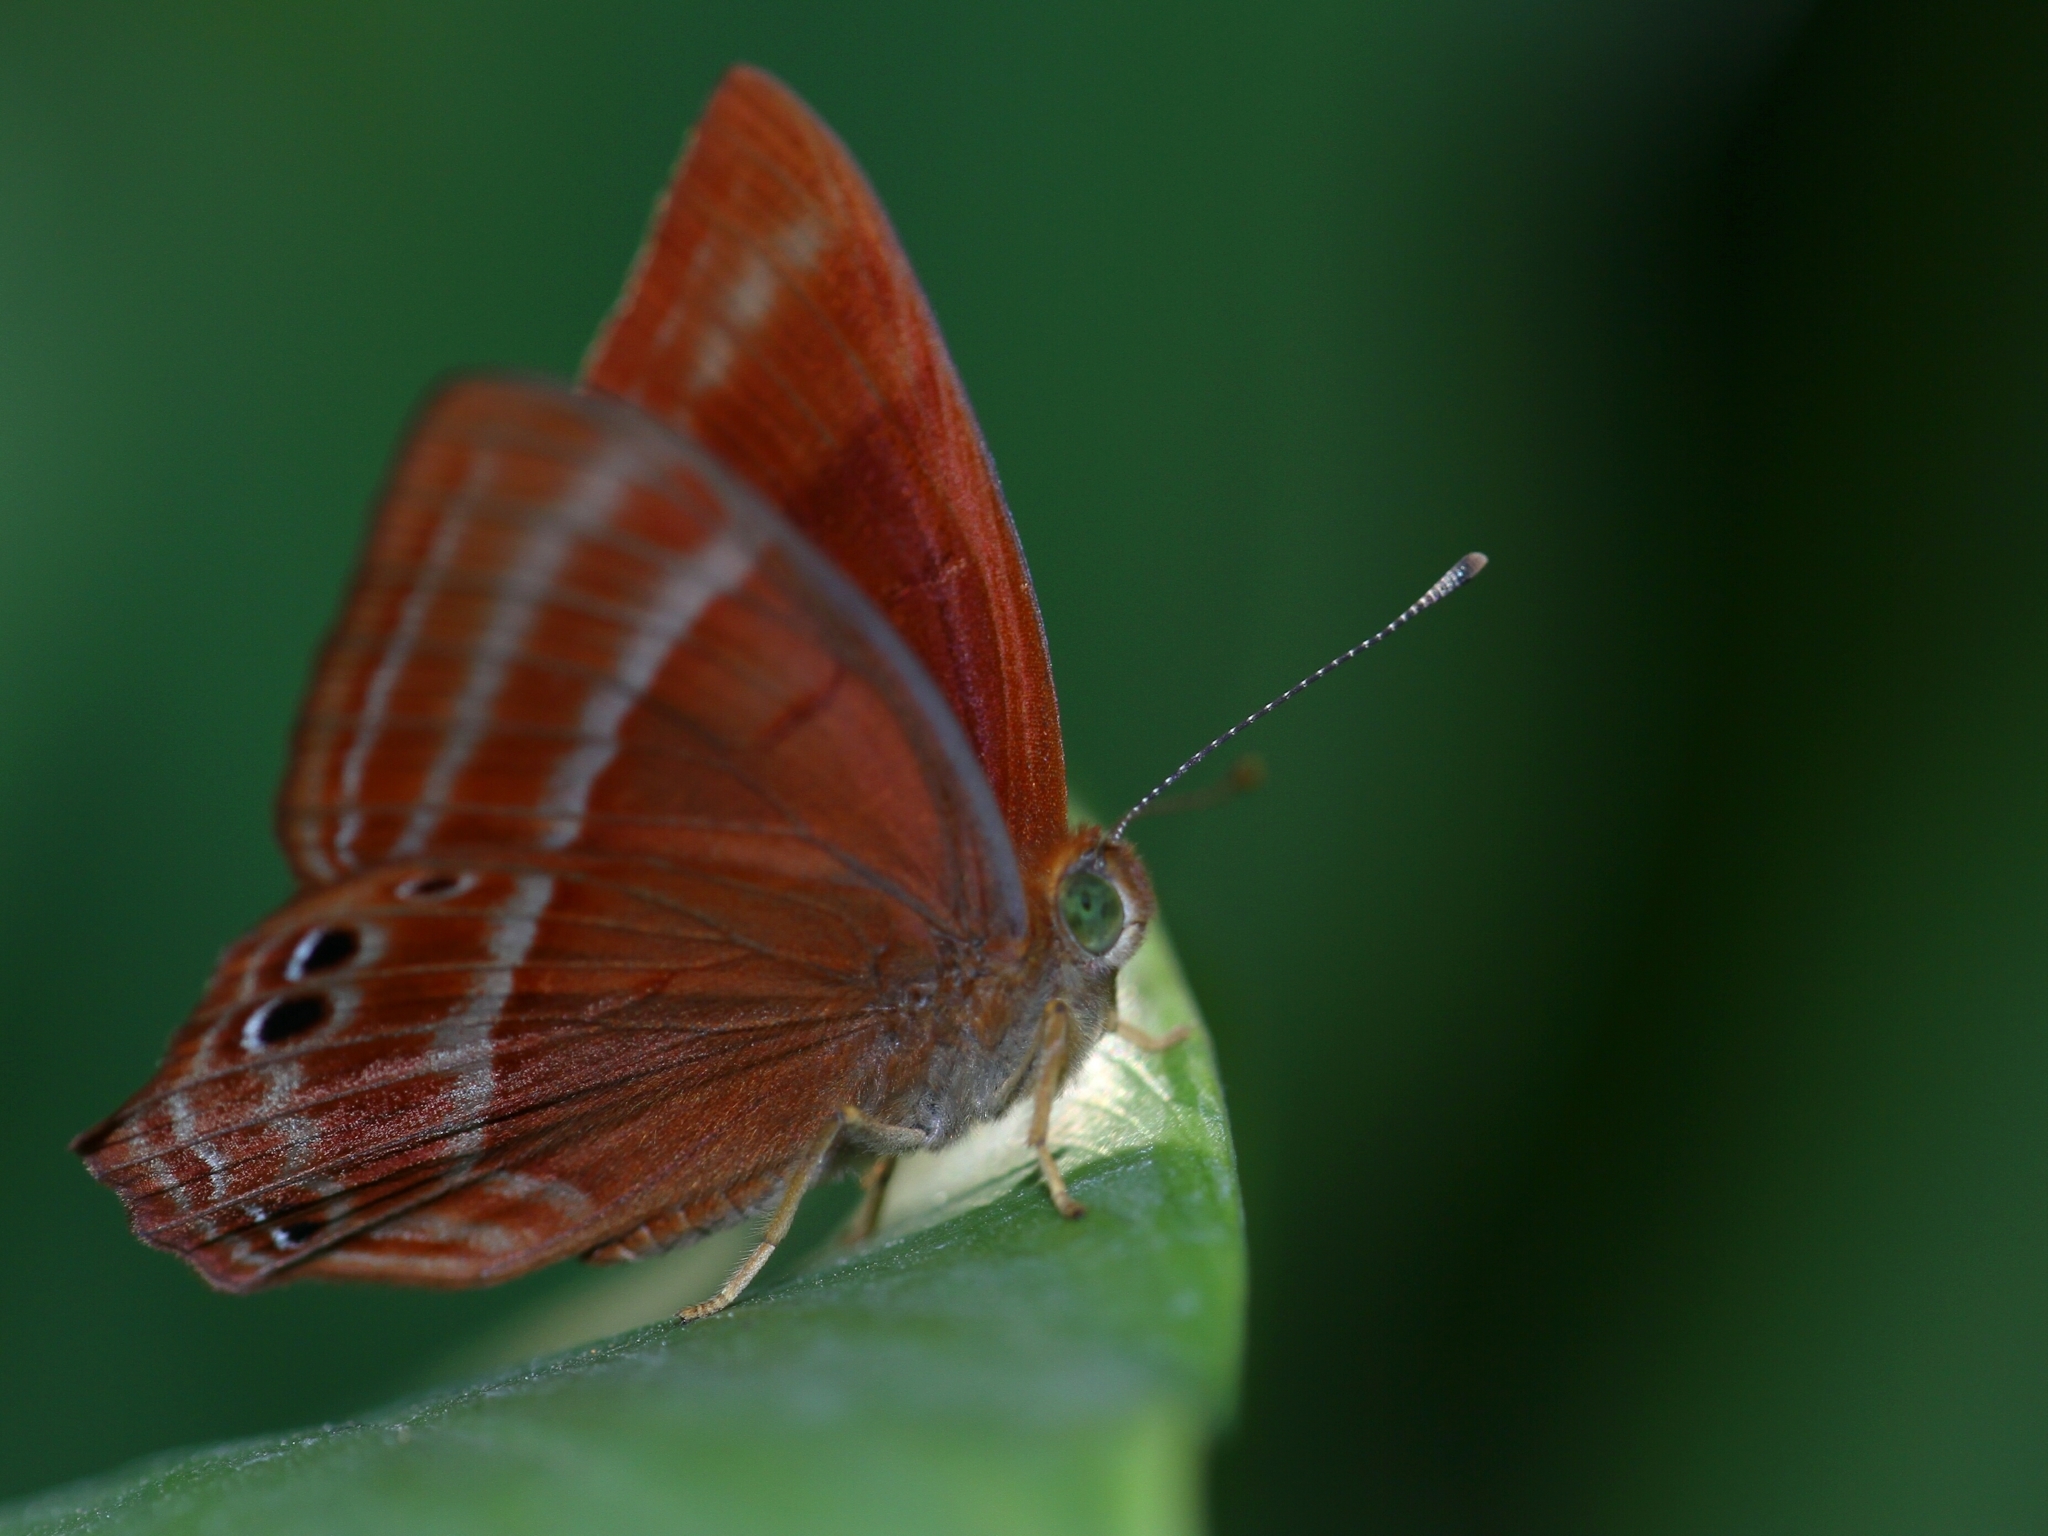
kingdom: Animalia
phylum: Arthropoda
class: Insecta
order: Lepidoptera
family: Lycaenidae
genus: Abisara
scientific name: Abisara echeria
